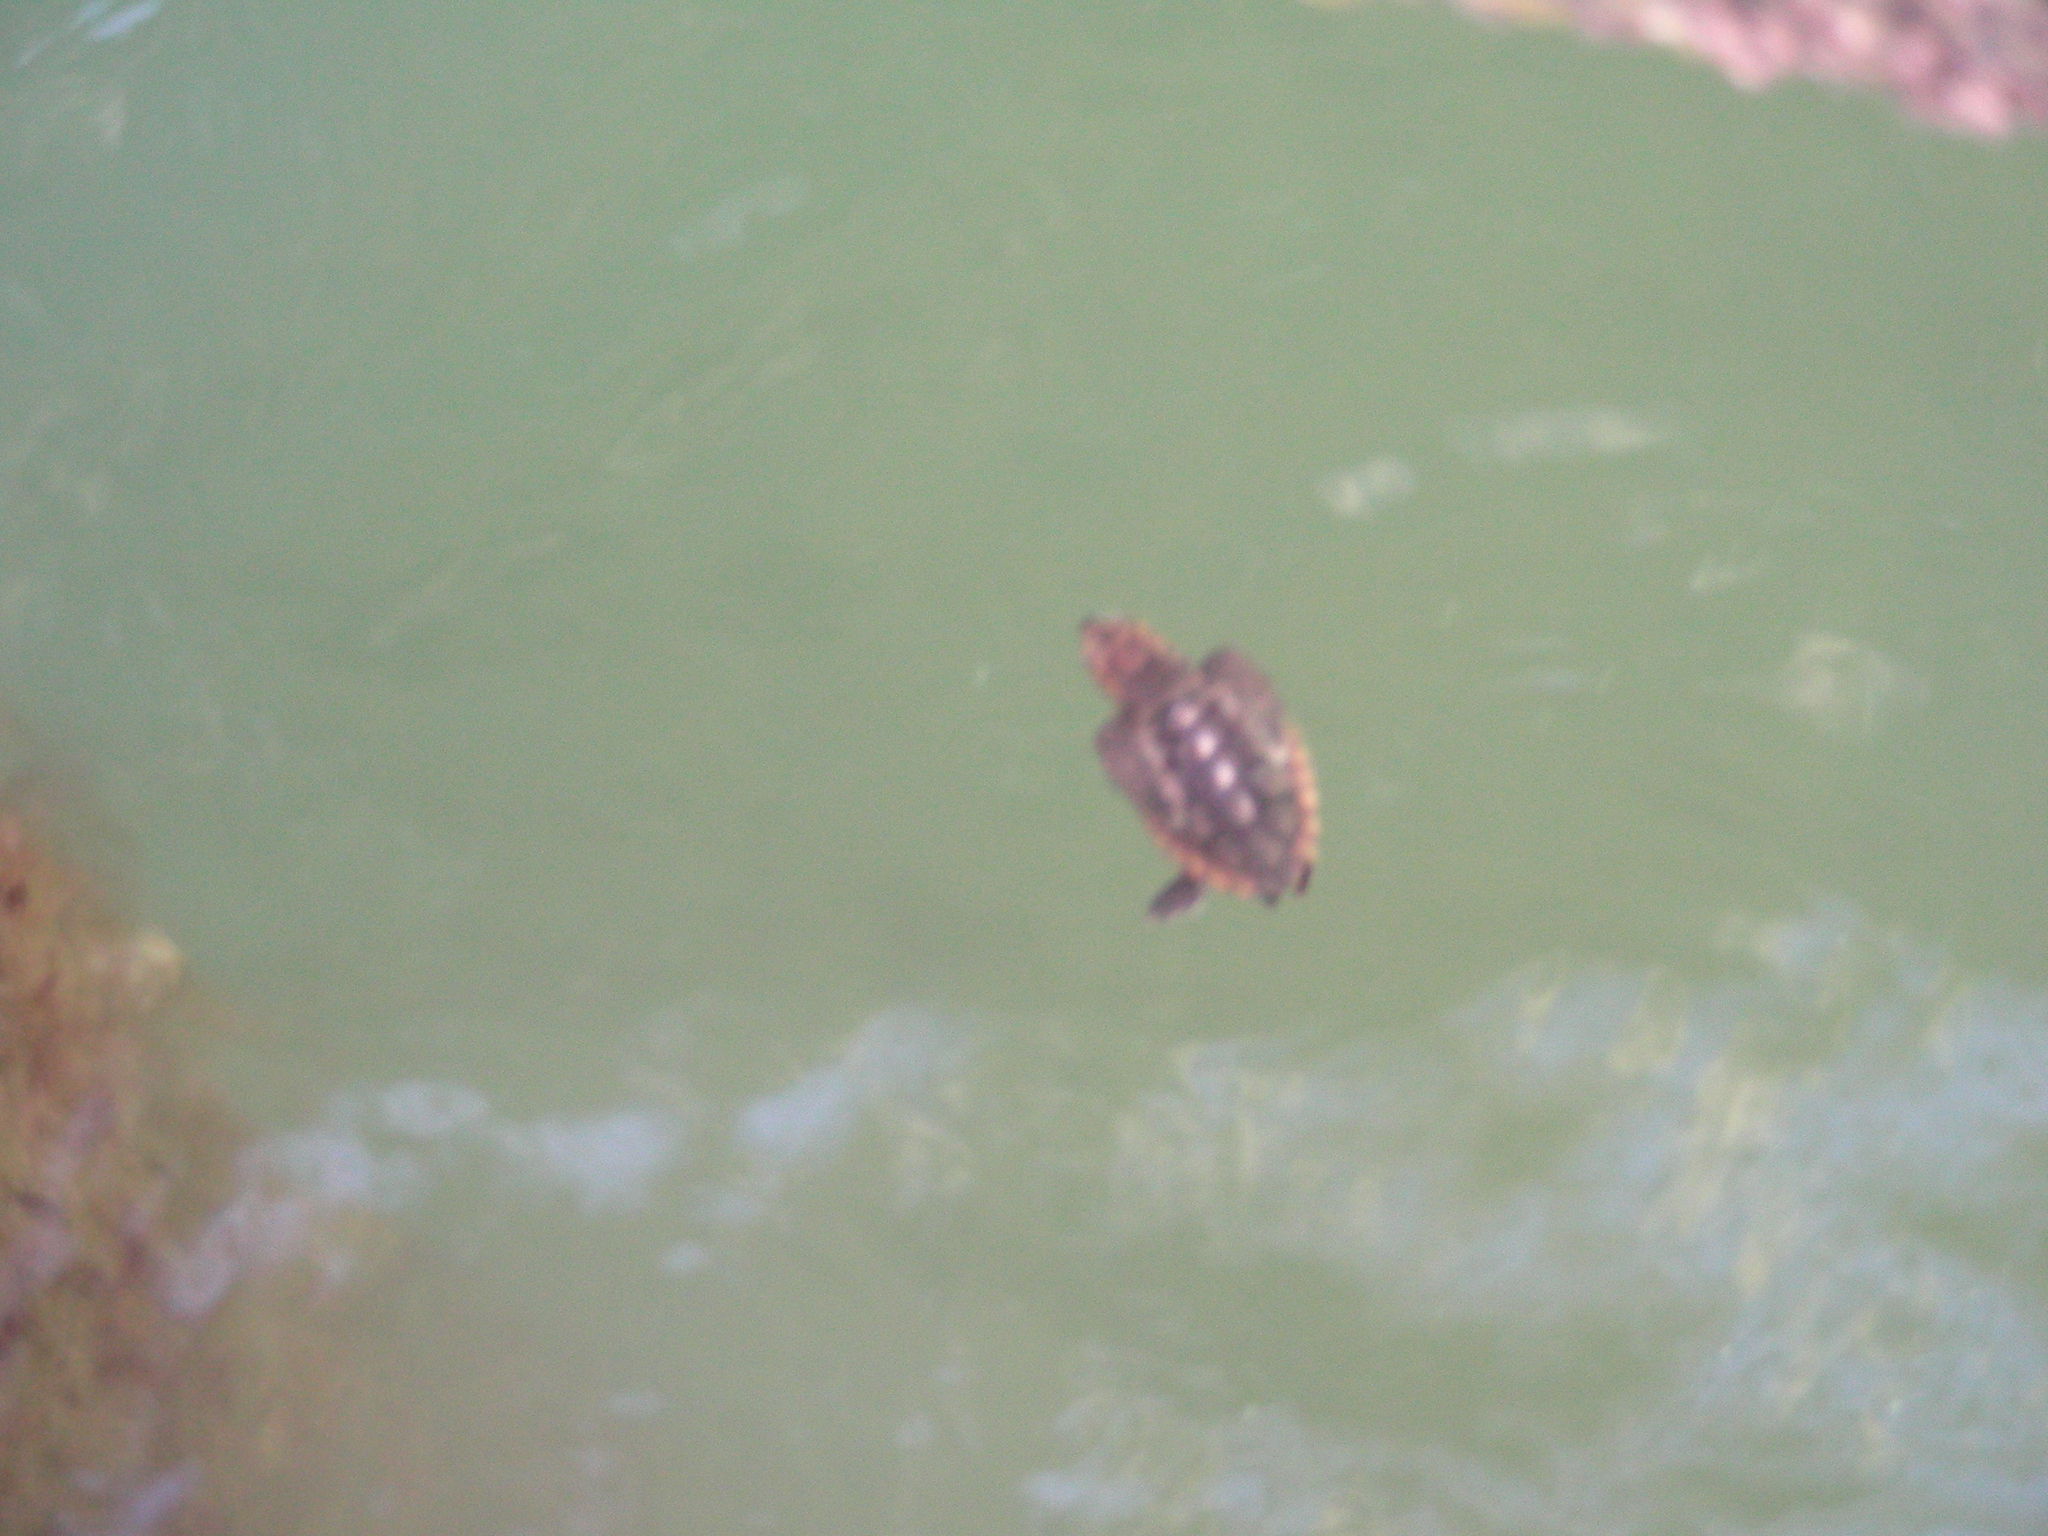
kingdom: Animalia
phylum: Chordata
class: Testudines
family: Cheloniidae
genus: Caretta
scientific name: Caretta caretta
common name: Loggerhead sea turtle
